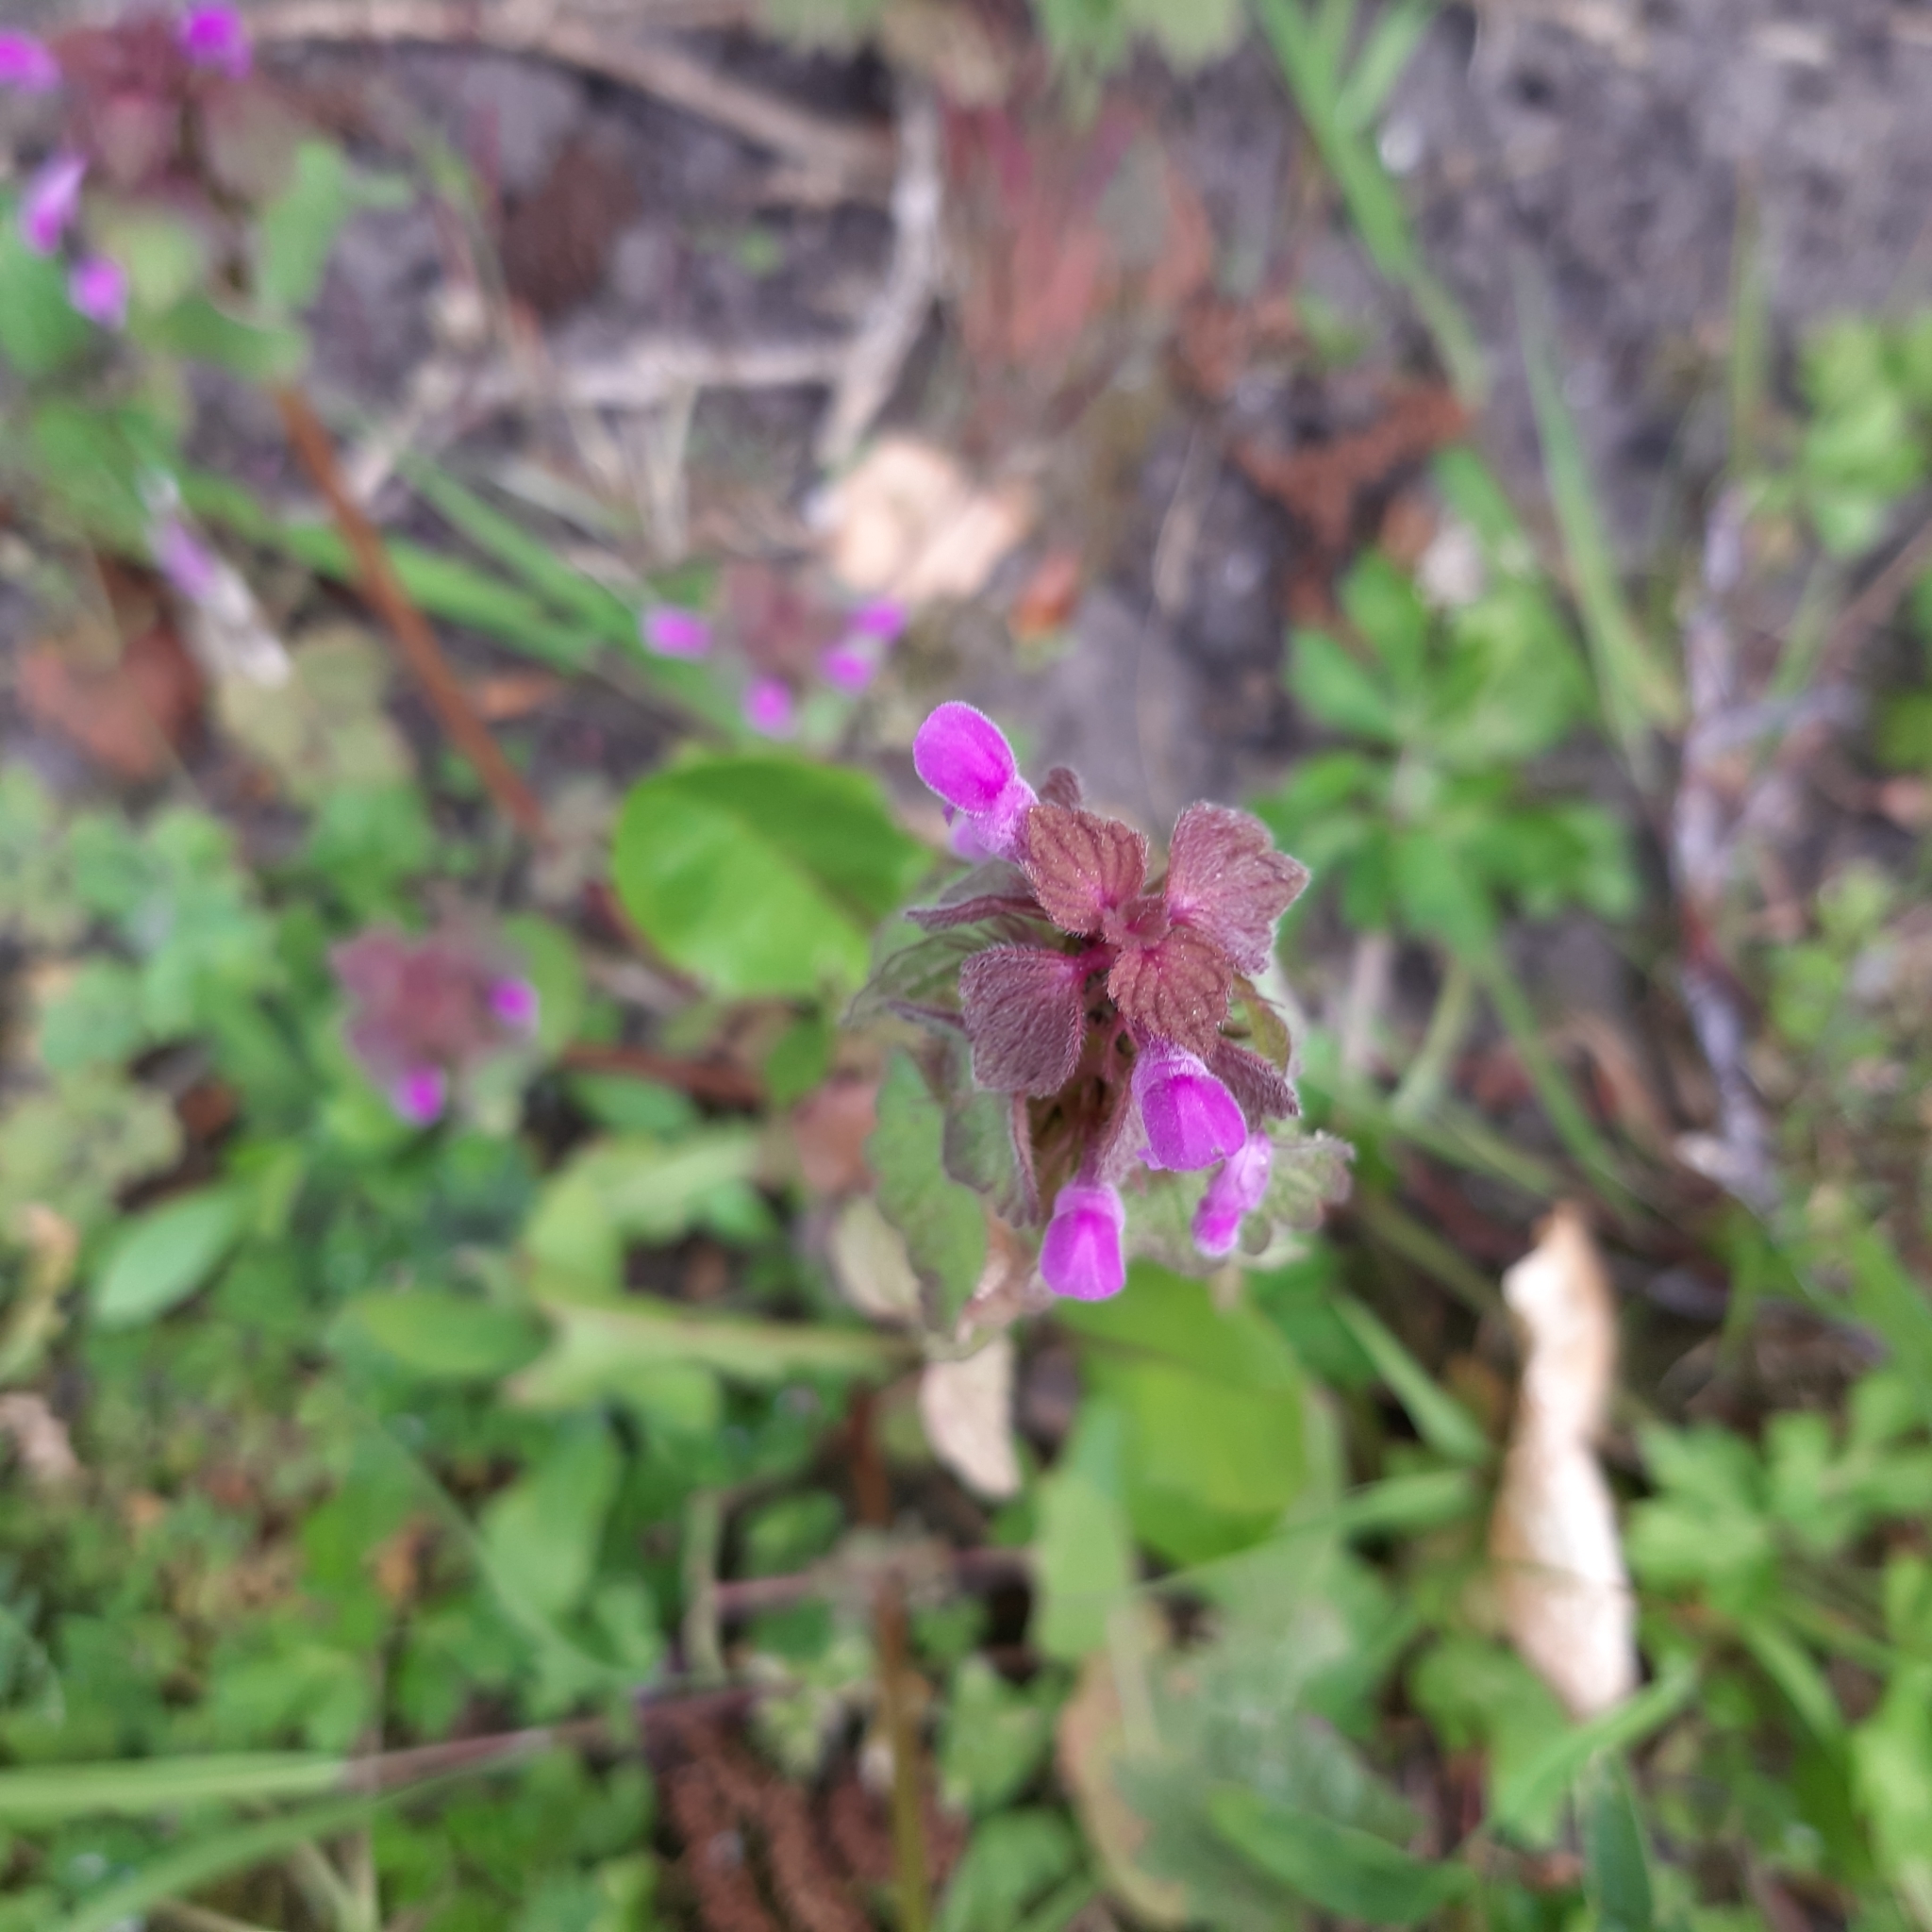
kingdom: Plantae
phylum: Tracheophyta
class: Magnoliopsida
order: Lamiales
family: Lamiaceae
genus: Lamium
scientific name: Lamium purpureum
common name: Red dead-nettle
